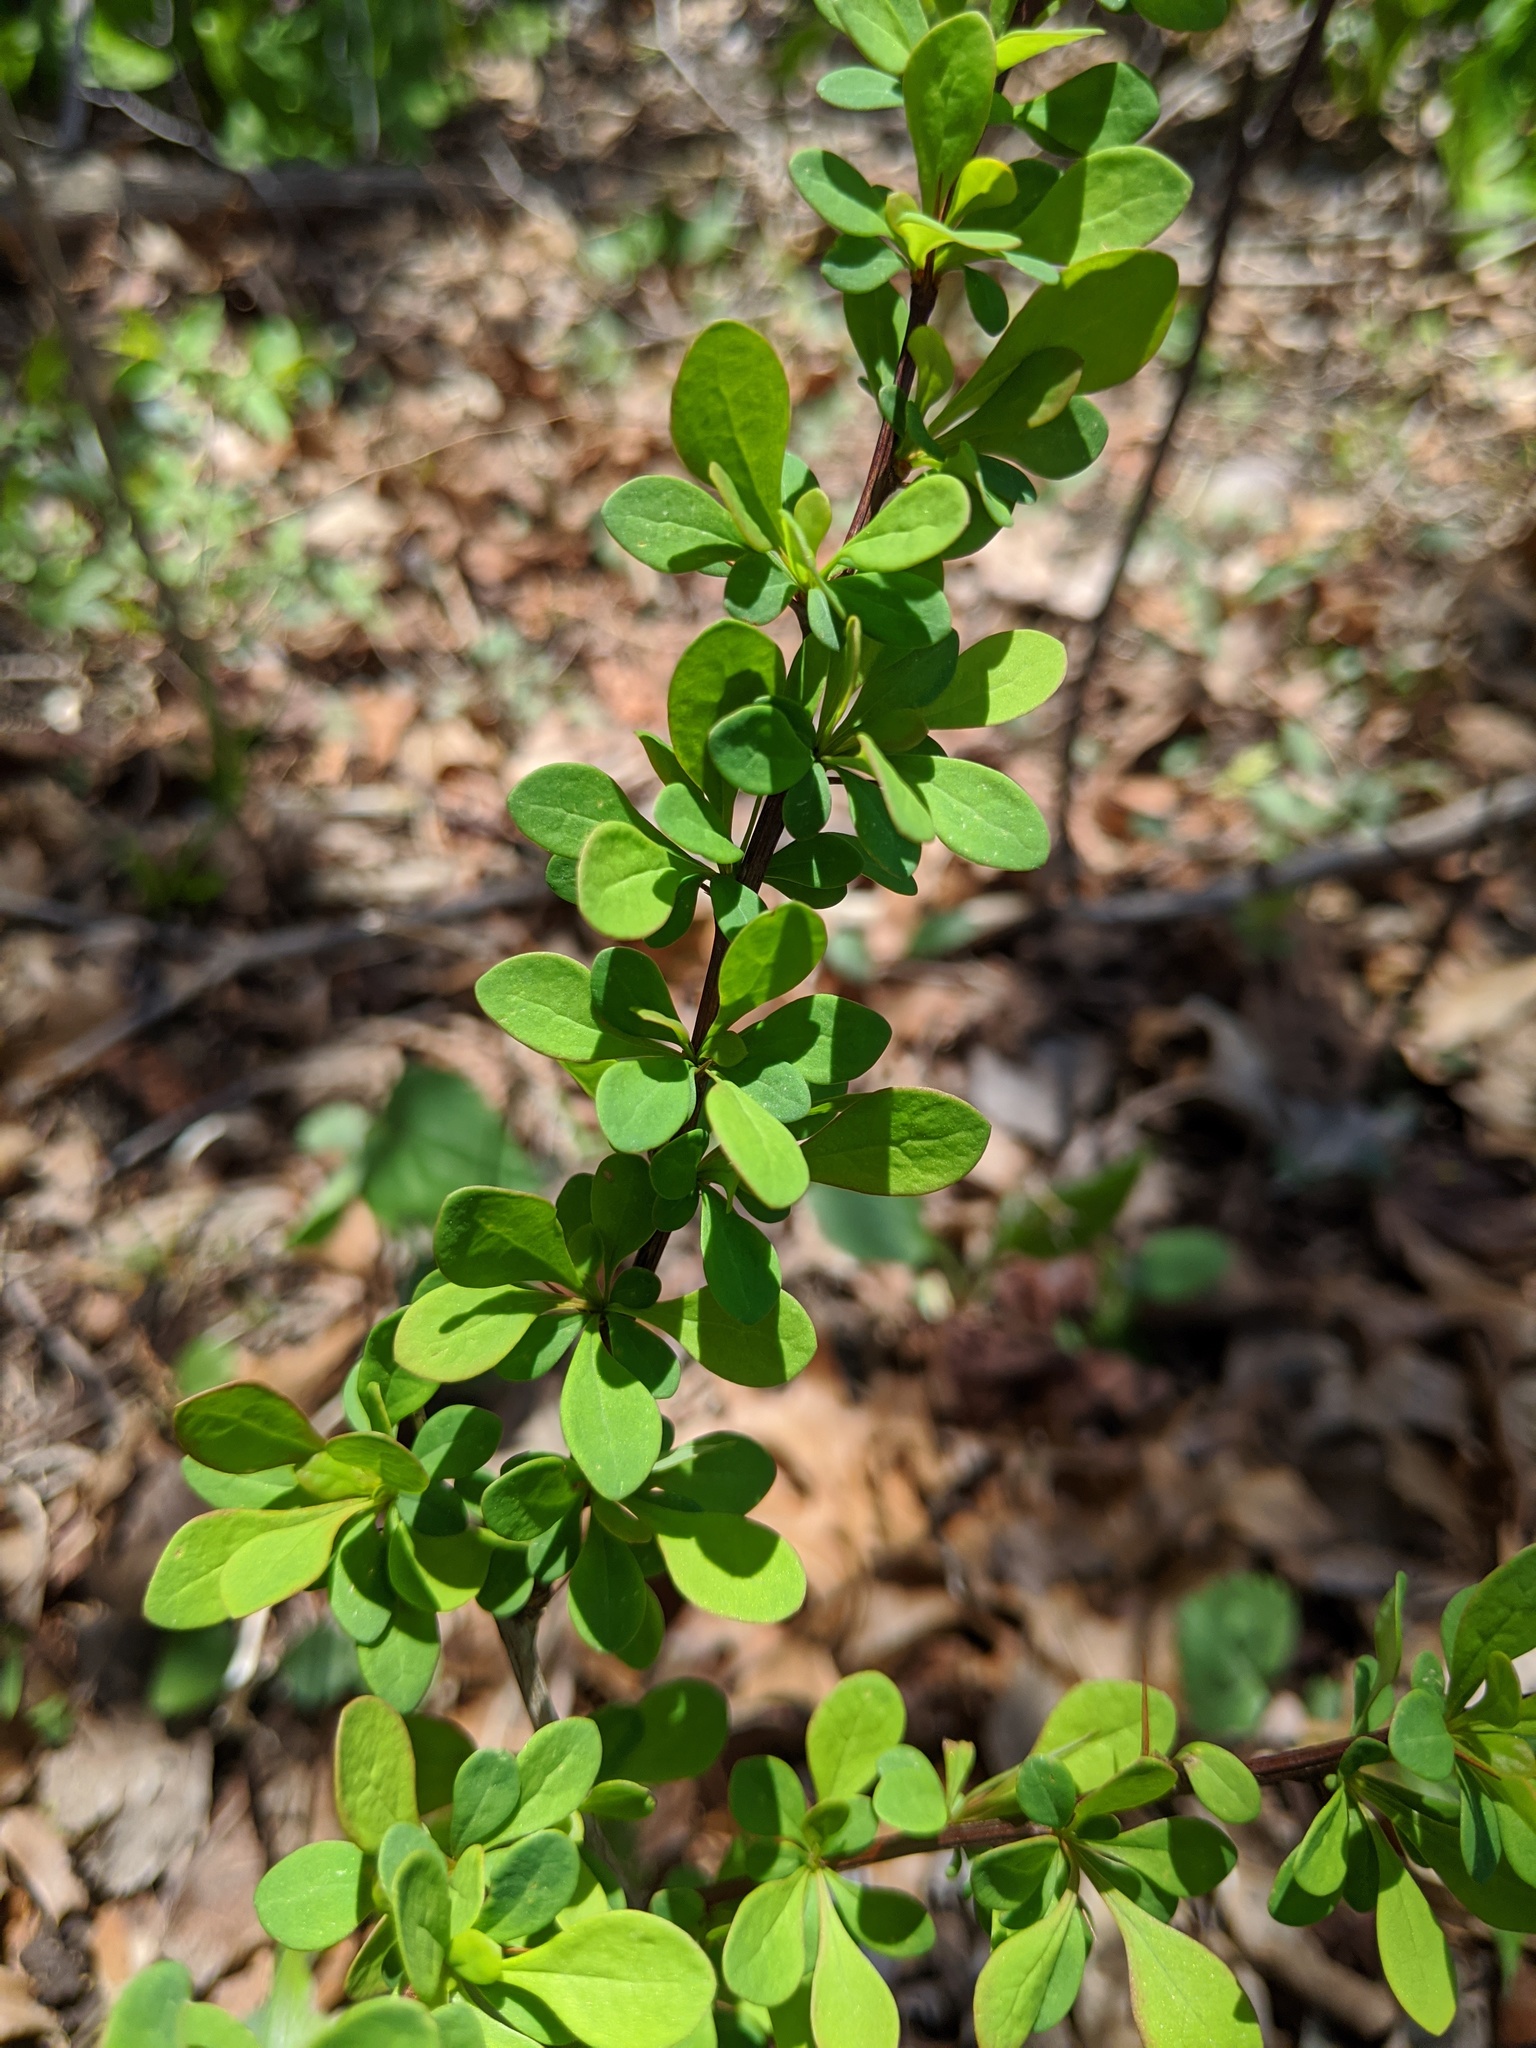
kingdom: Plantae
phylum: Tracheophyta
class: Magnoliopsida
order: Ranunculales
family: Berberidaceae
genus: Berberis
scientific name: Berberis thunbergii
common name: Japanese barberry
